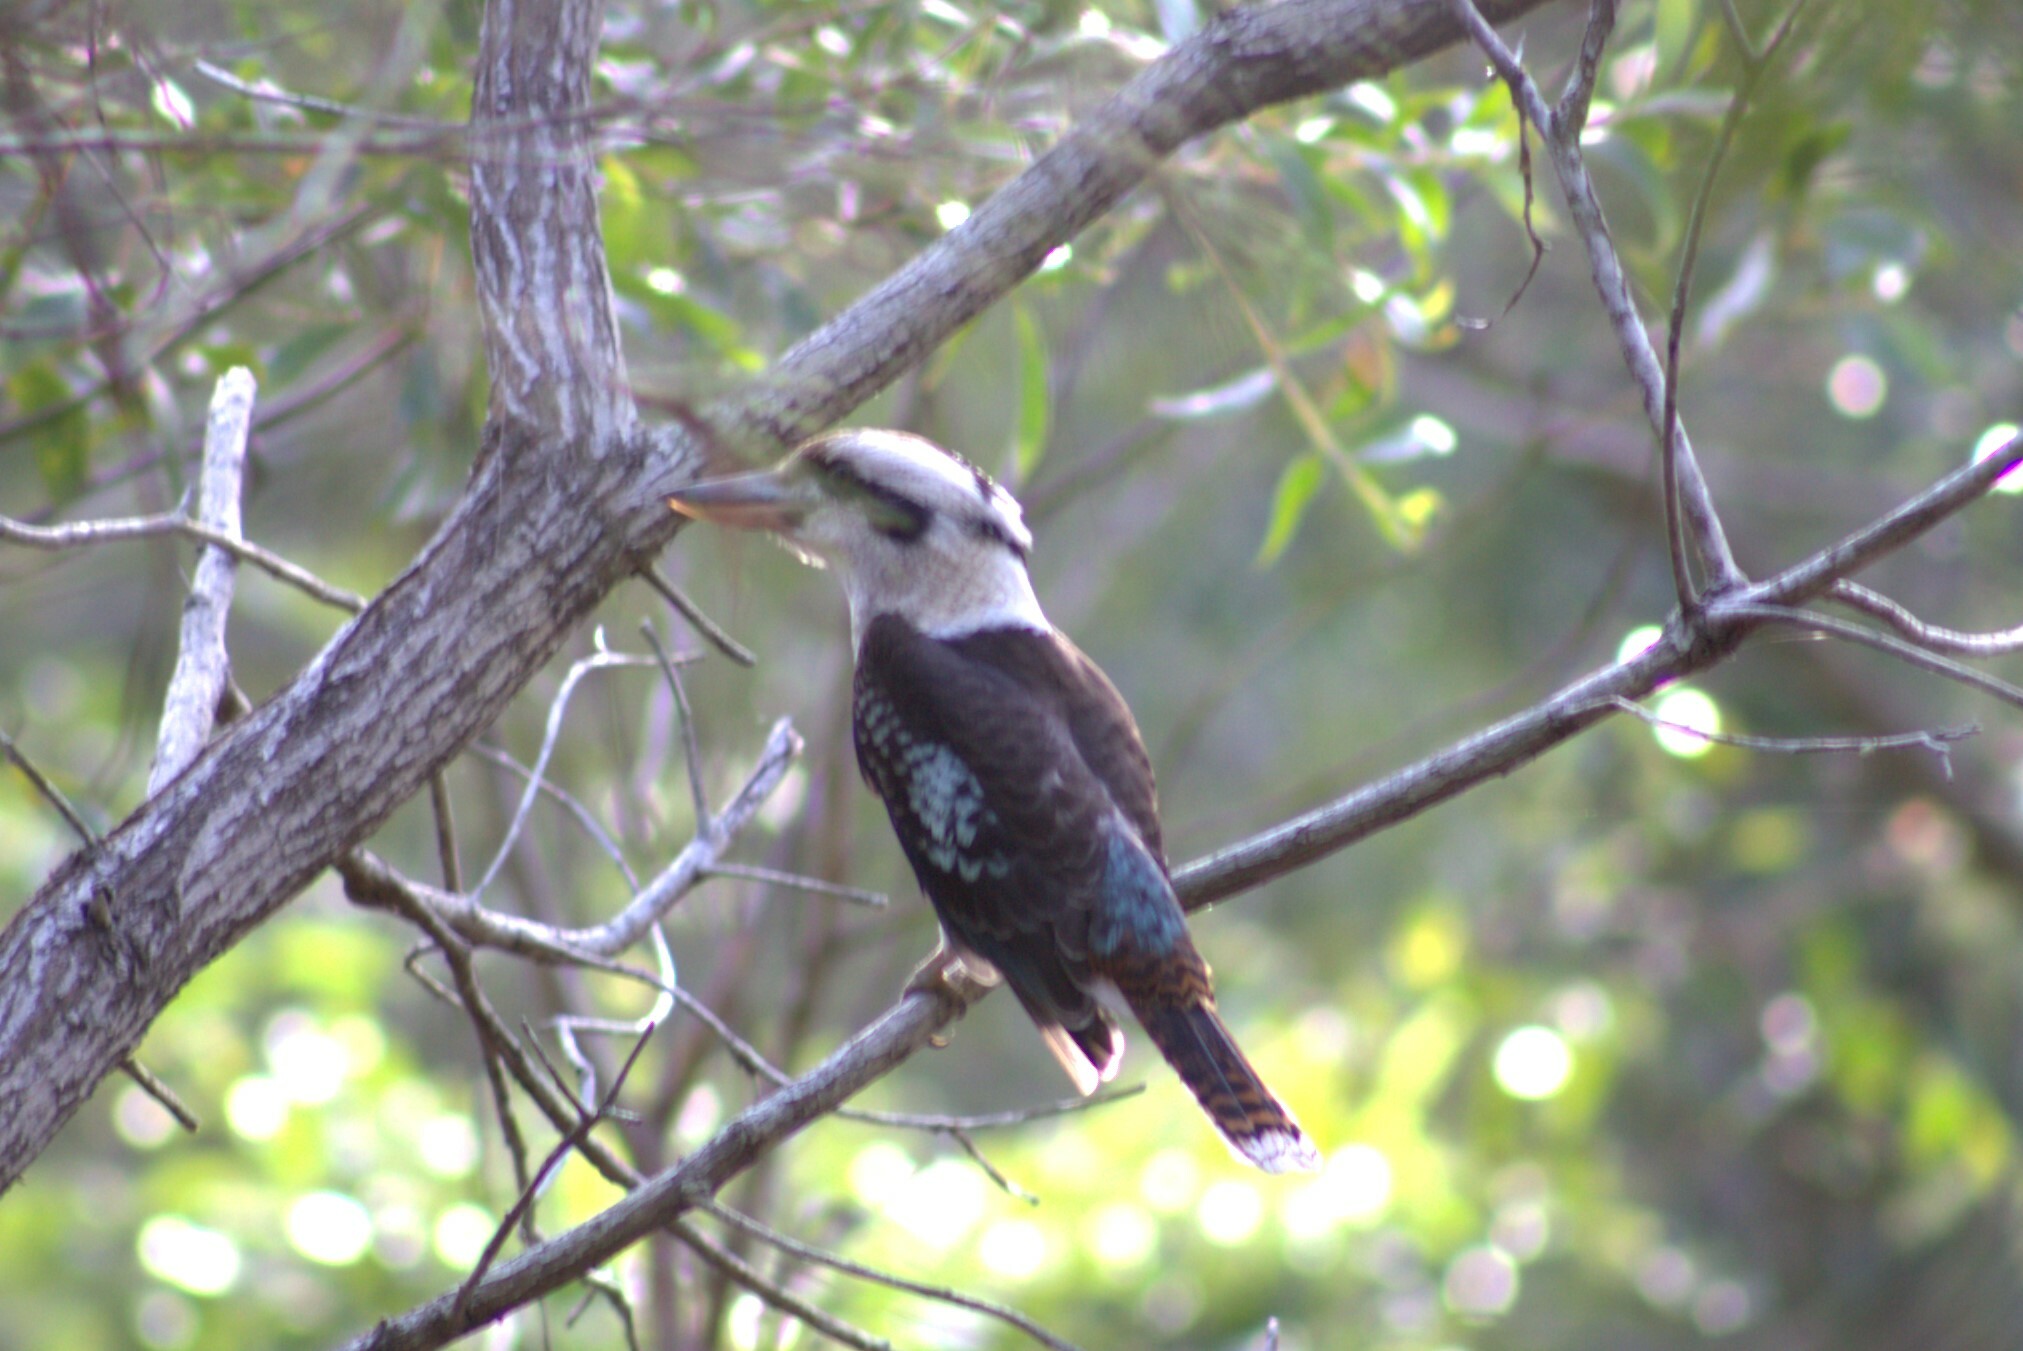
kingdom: Animalia
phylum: Chordata
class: Aves
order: Coraciiformes
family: Alcedinidae
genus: Dacelo
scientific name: Dacelo novaeguineae
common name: Laughing kookaburra
